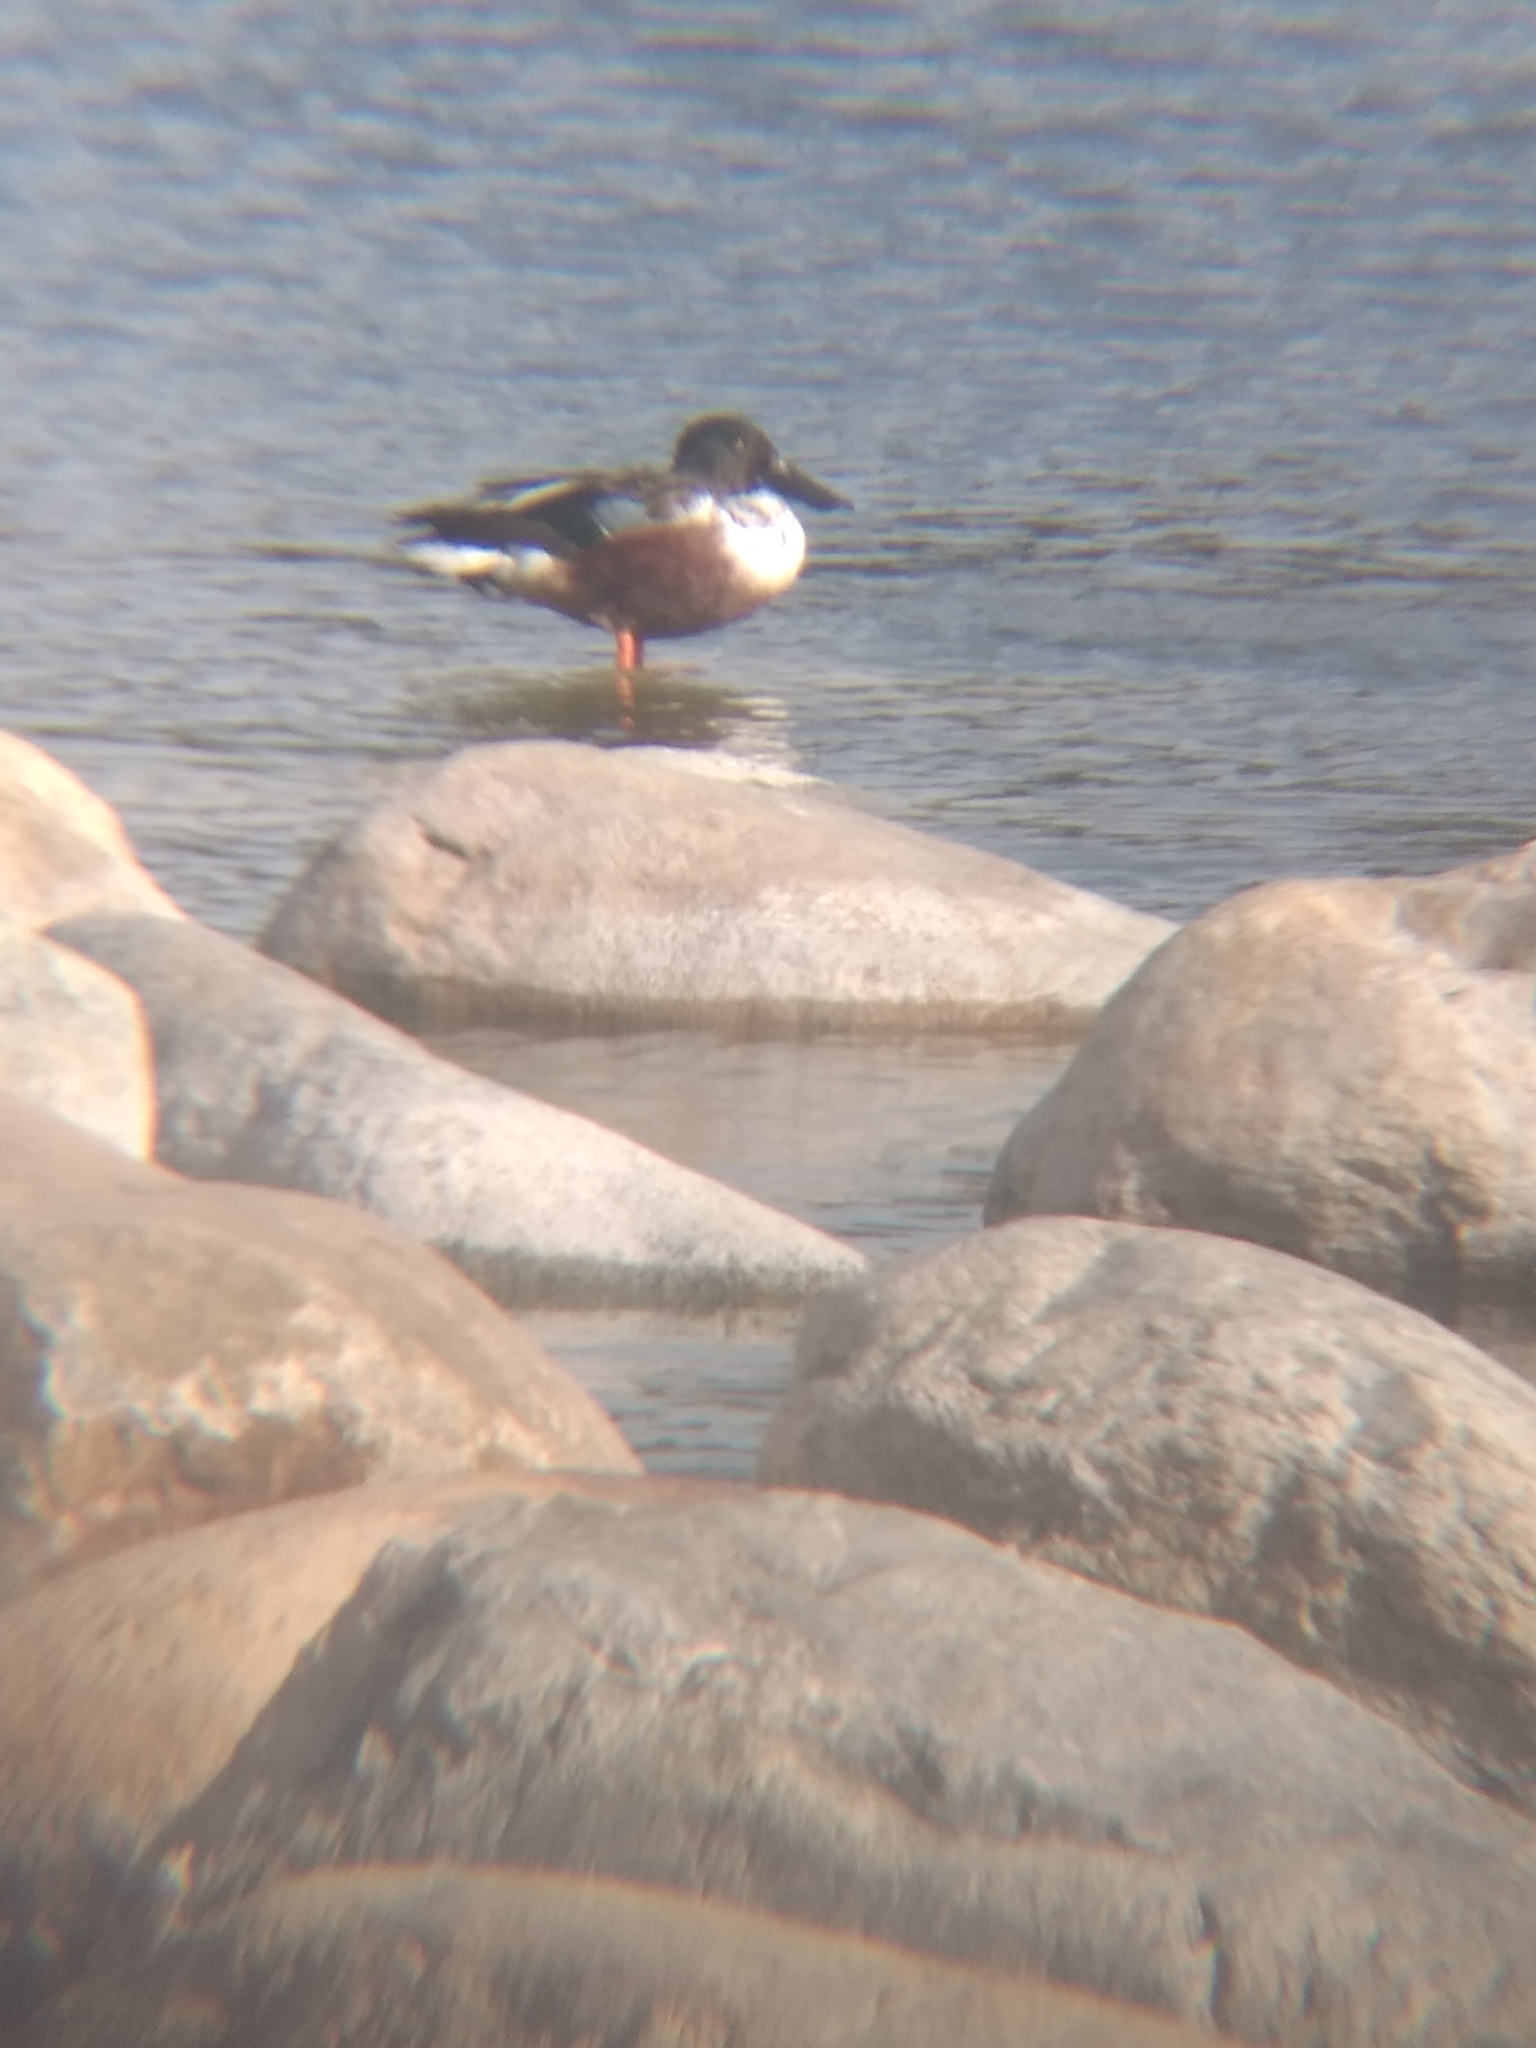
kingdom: Animalia
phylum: Chordata
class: Aves
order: Anseriformes
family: Anatidae
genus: Spatula
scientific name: Spatula clypeata
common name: Northern shoveler
